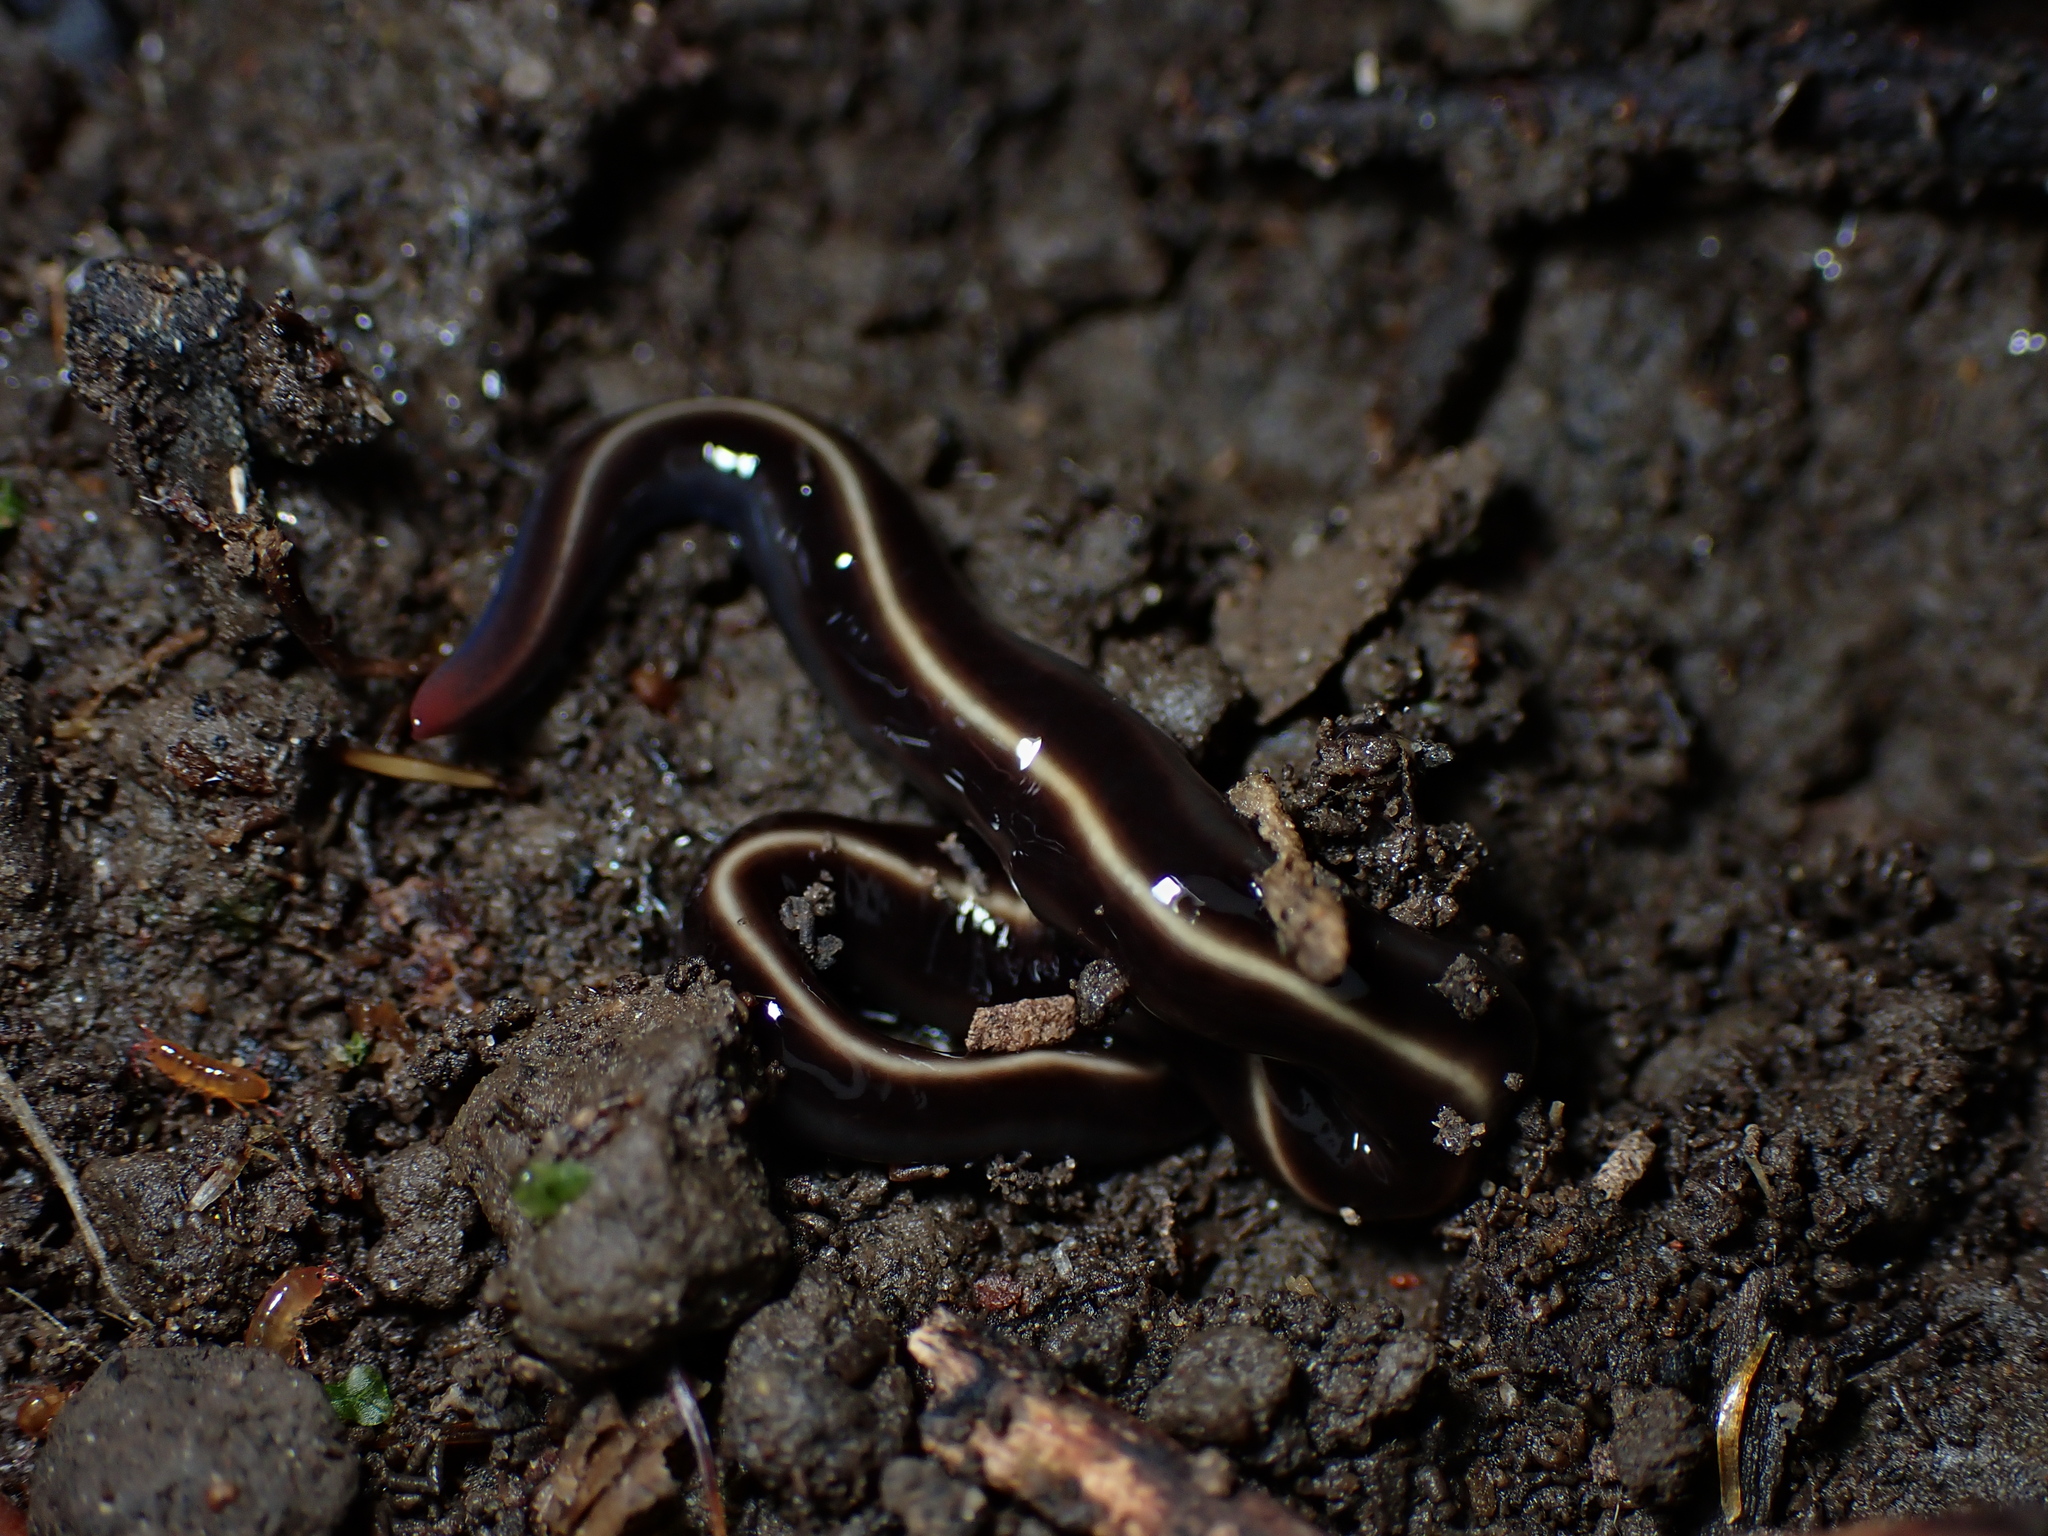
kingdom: Animalia
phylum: Platyhelminthes
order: Tricladida
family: Geoplanidae
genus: Caenoplana
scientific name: Caenoplana coerulea
